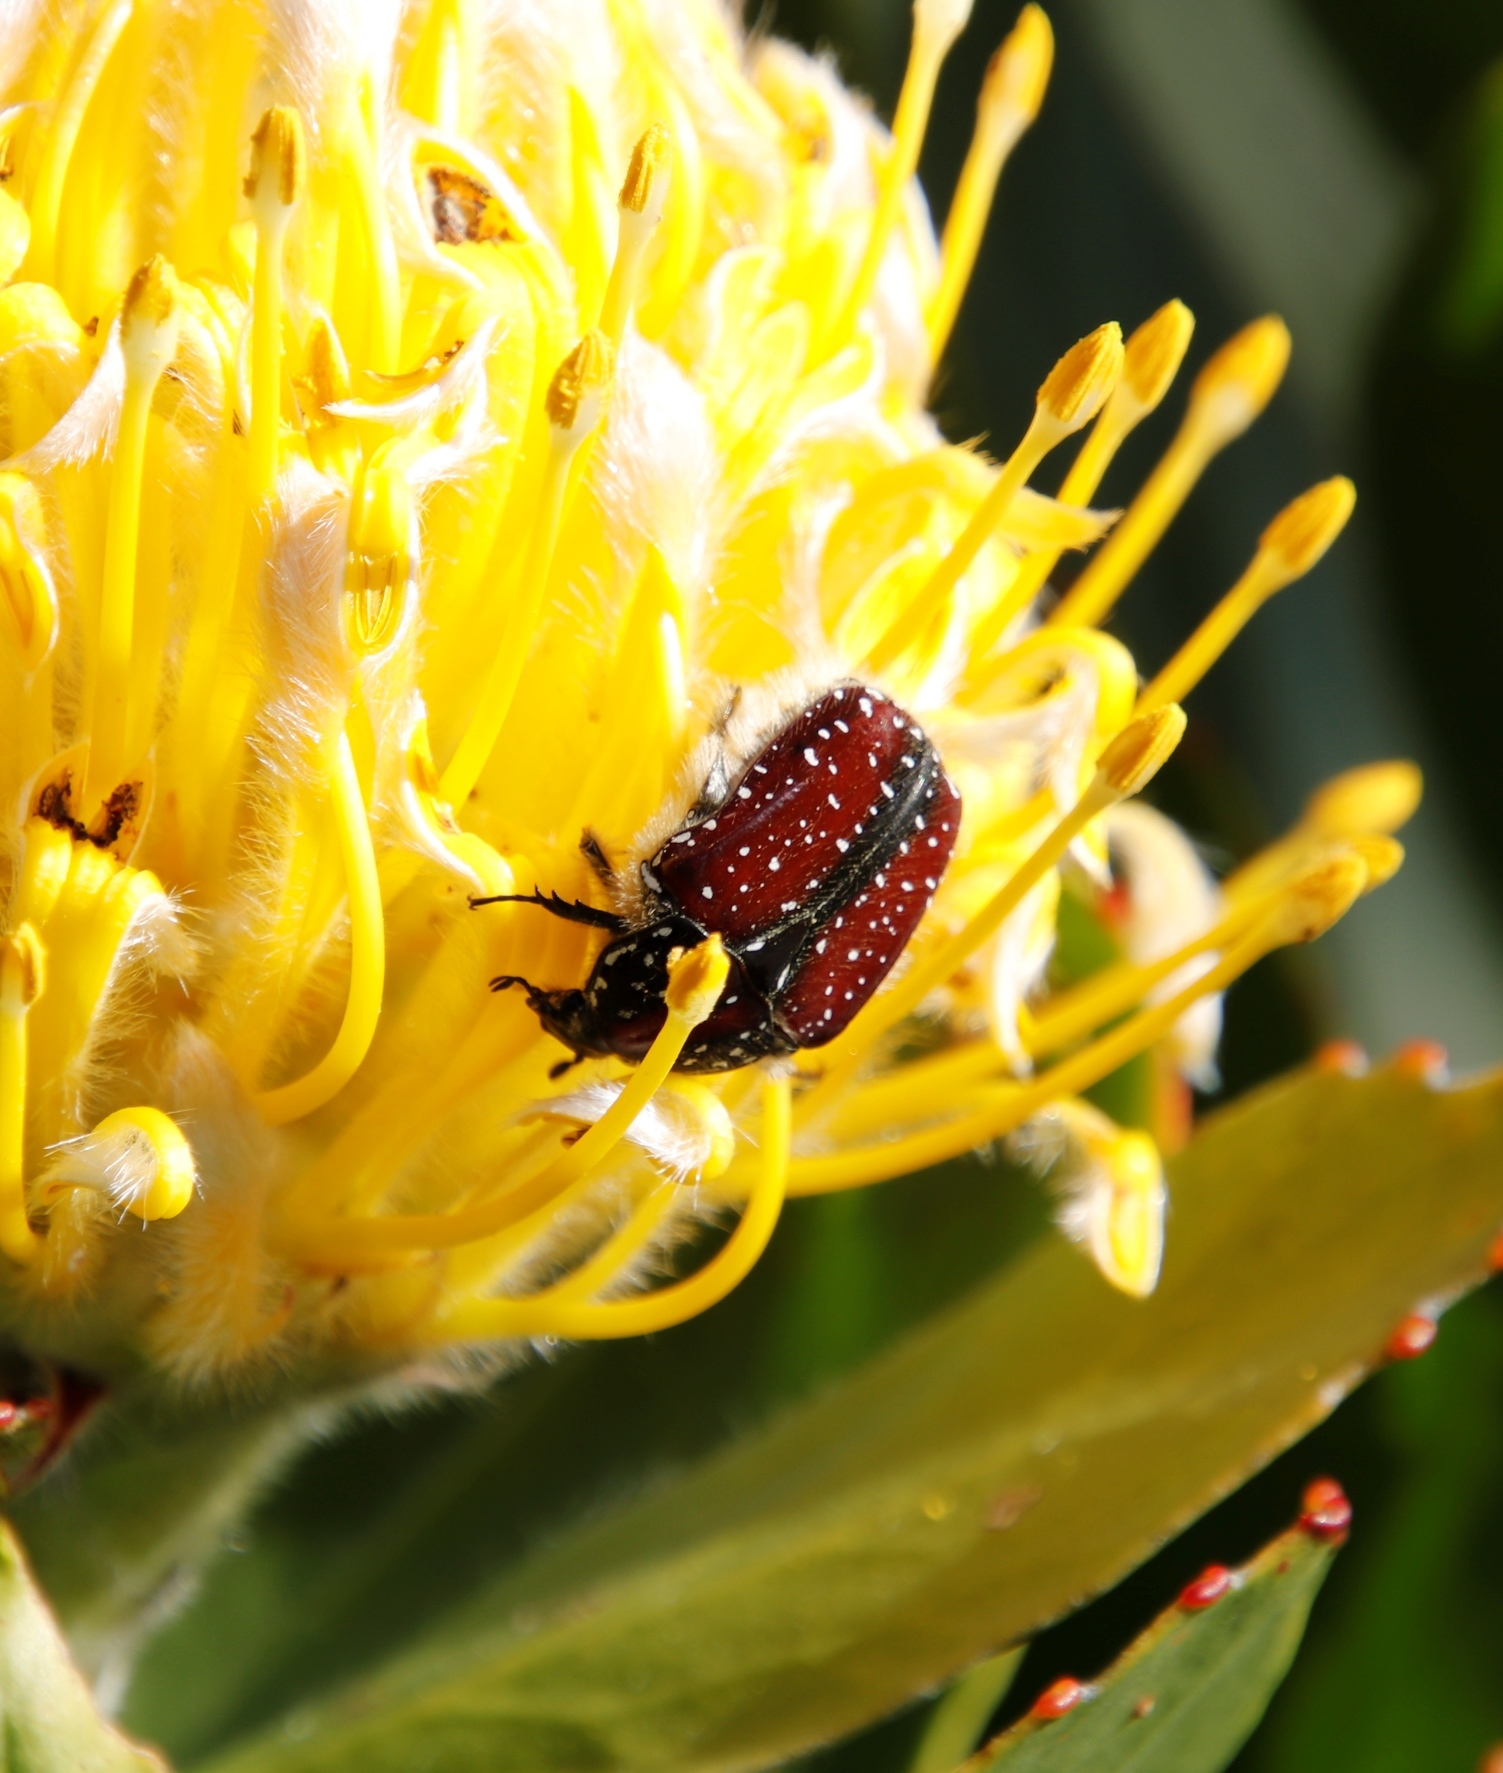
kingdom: Animalia
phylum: Arthropoda
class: Insecta
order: Coleoptera
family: Scarabaeidae
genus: Trichostetha
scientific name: Trichostetha capensis
